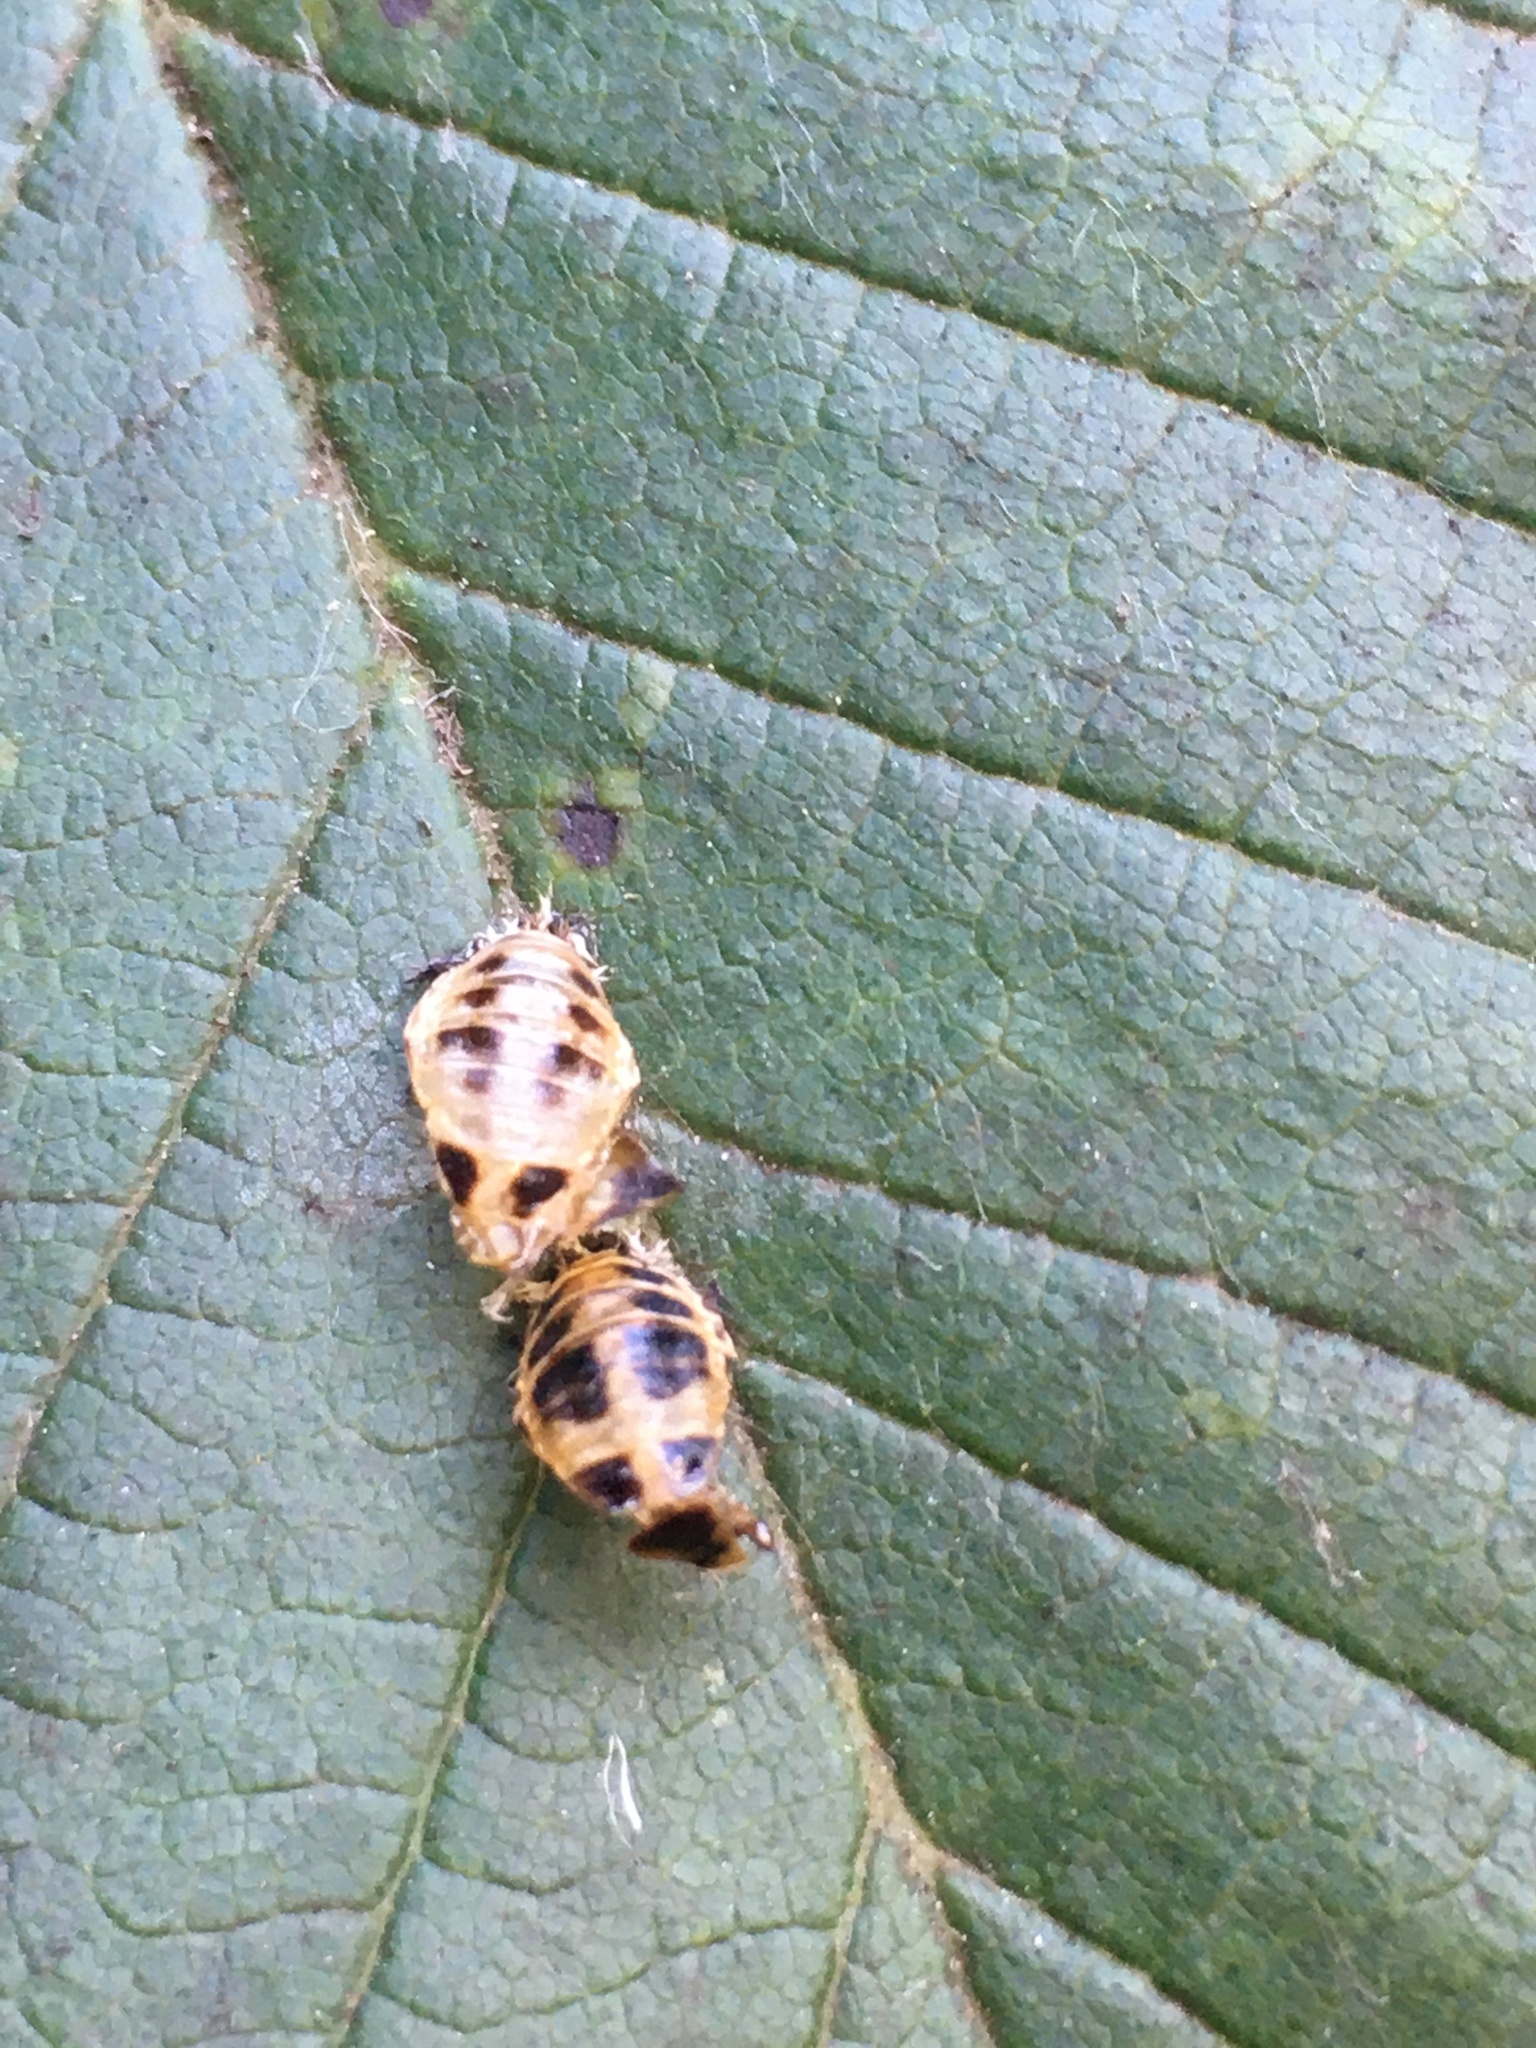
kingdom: Animalia
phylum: Arthropoda
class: Insecta
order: Coleoptera
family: Coccinellidae
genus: Harmonia
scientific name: Harmonia axyridis
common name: Harlequin ladybird
